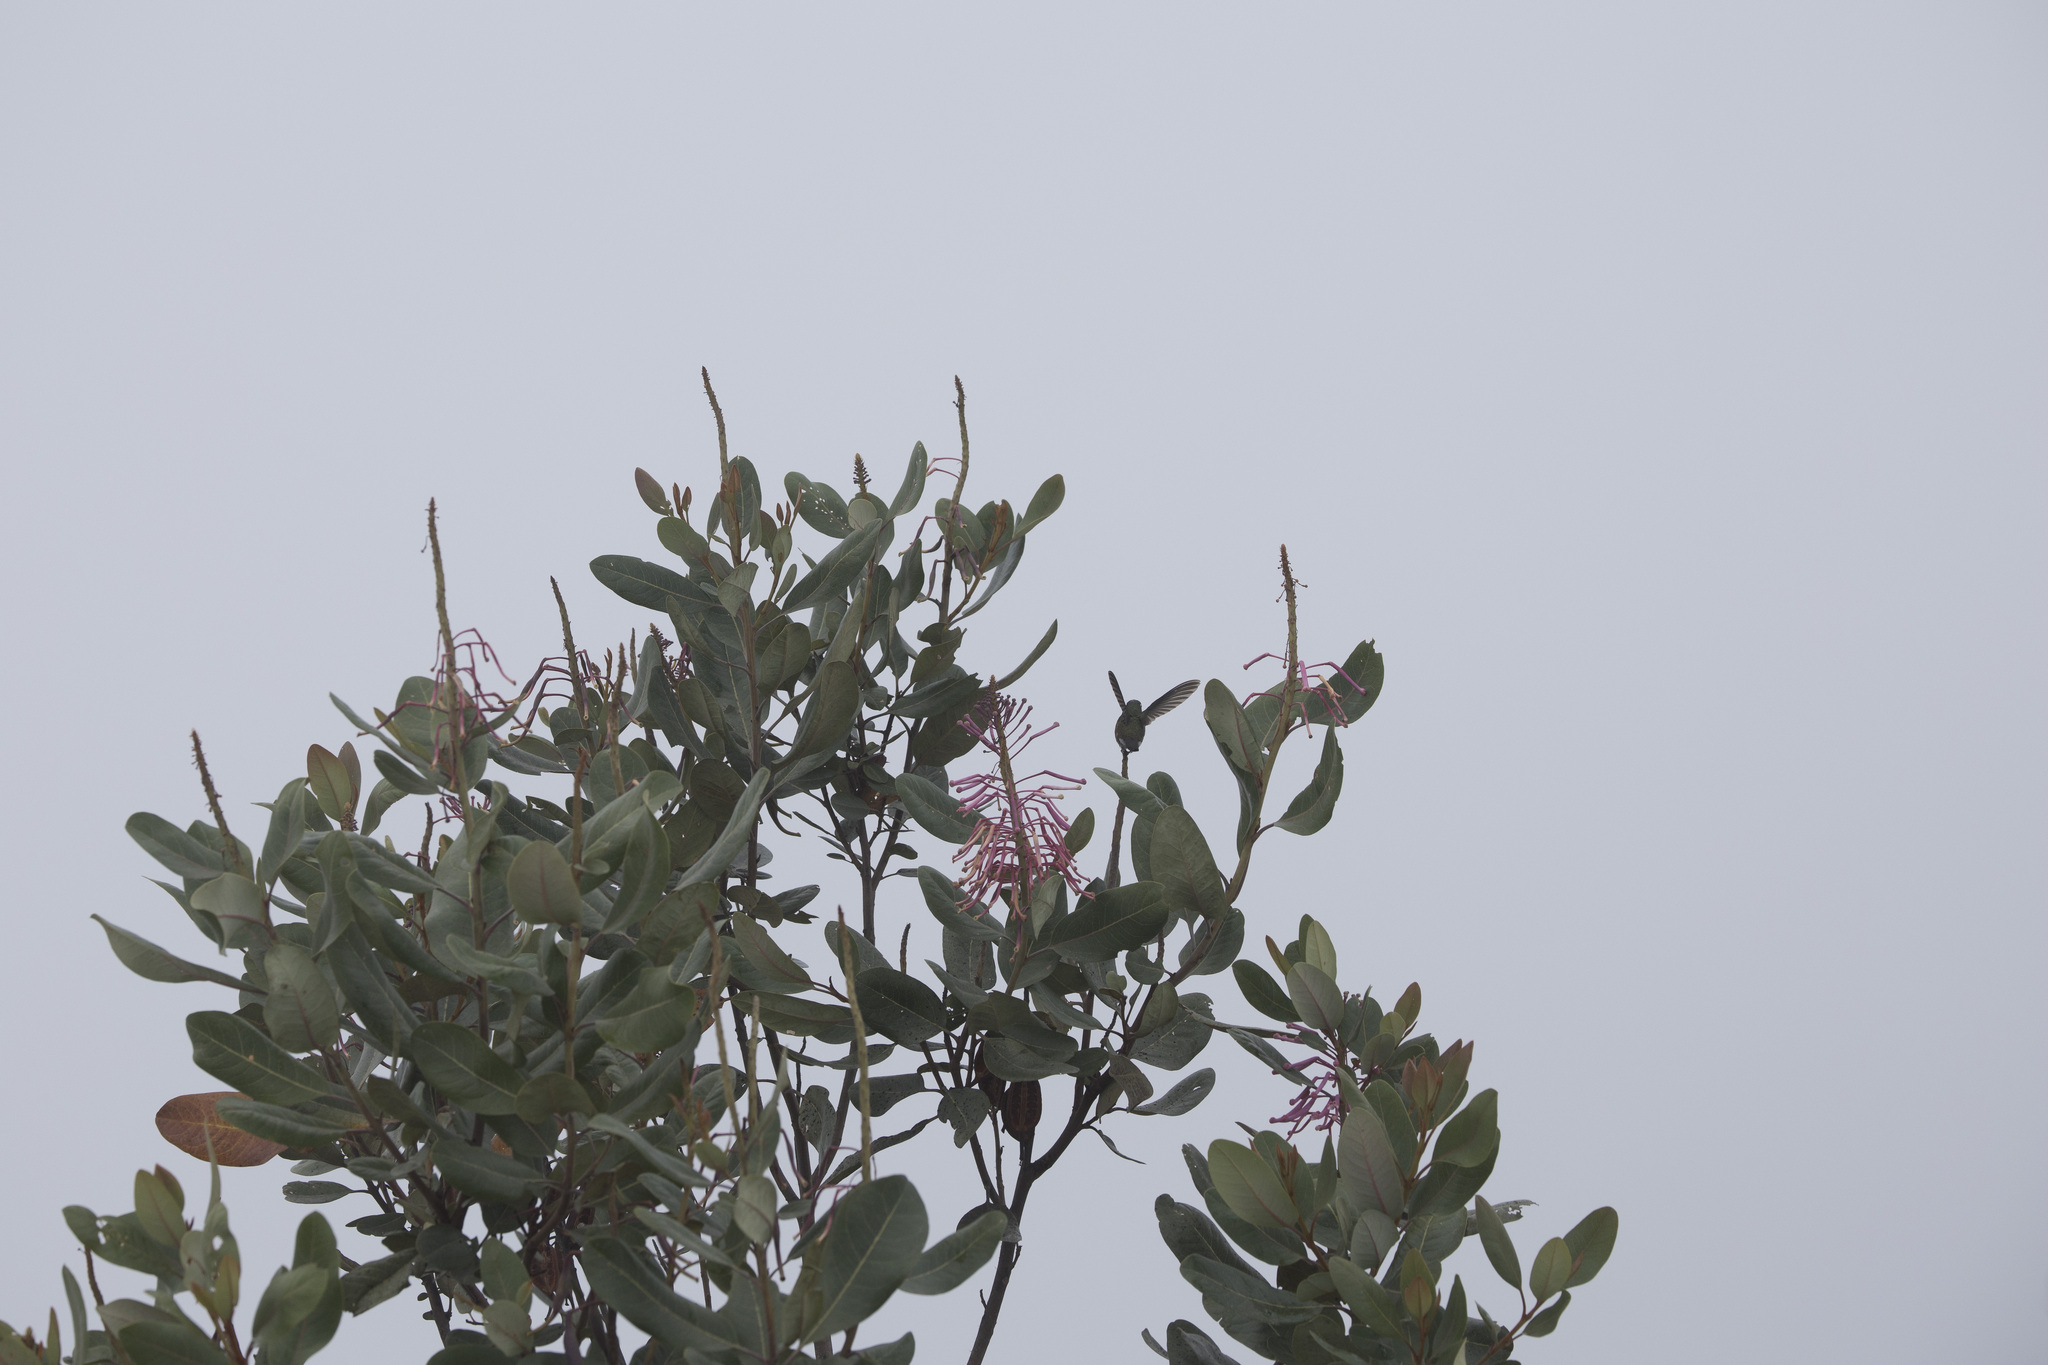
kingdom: Plantae
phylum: Tracheophyta
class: Magnoliopsida
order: Proteales
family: Proteaceae
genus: Oreocallis
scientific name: Oreocallis grandiflora
